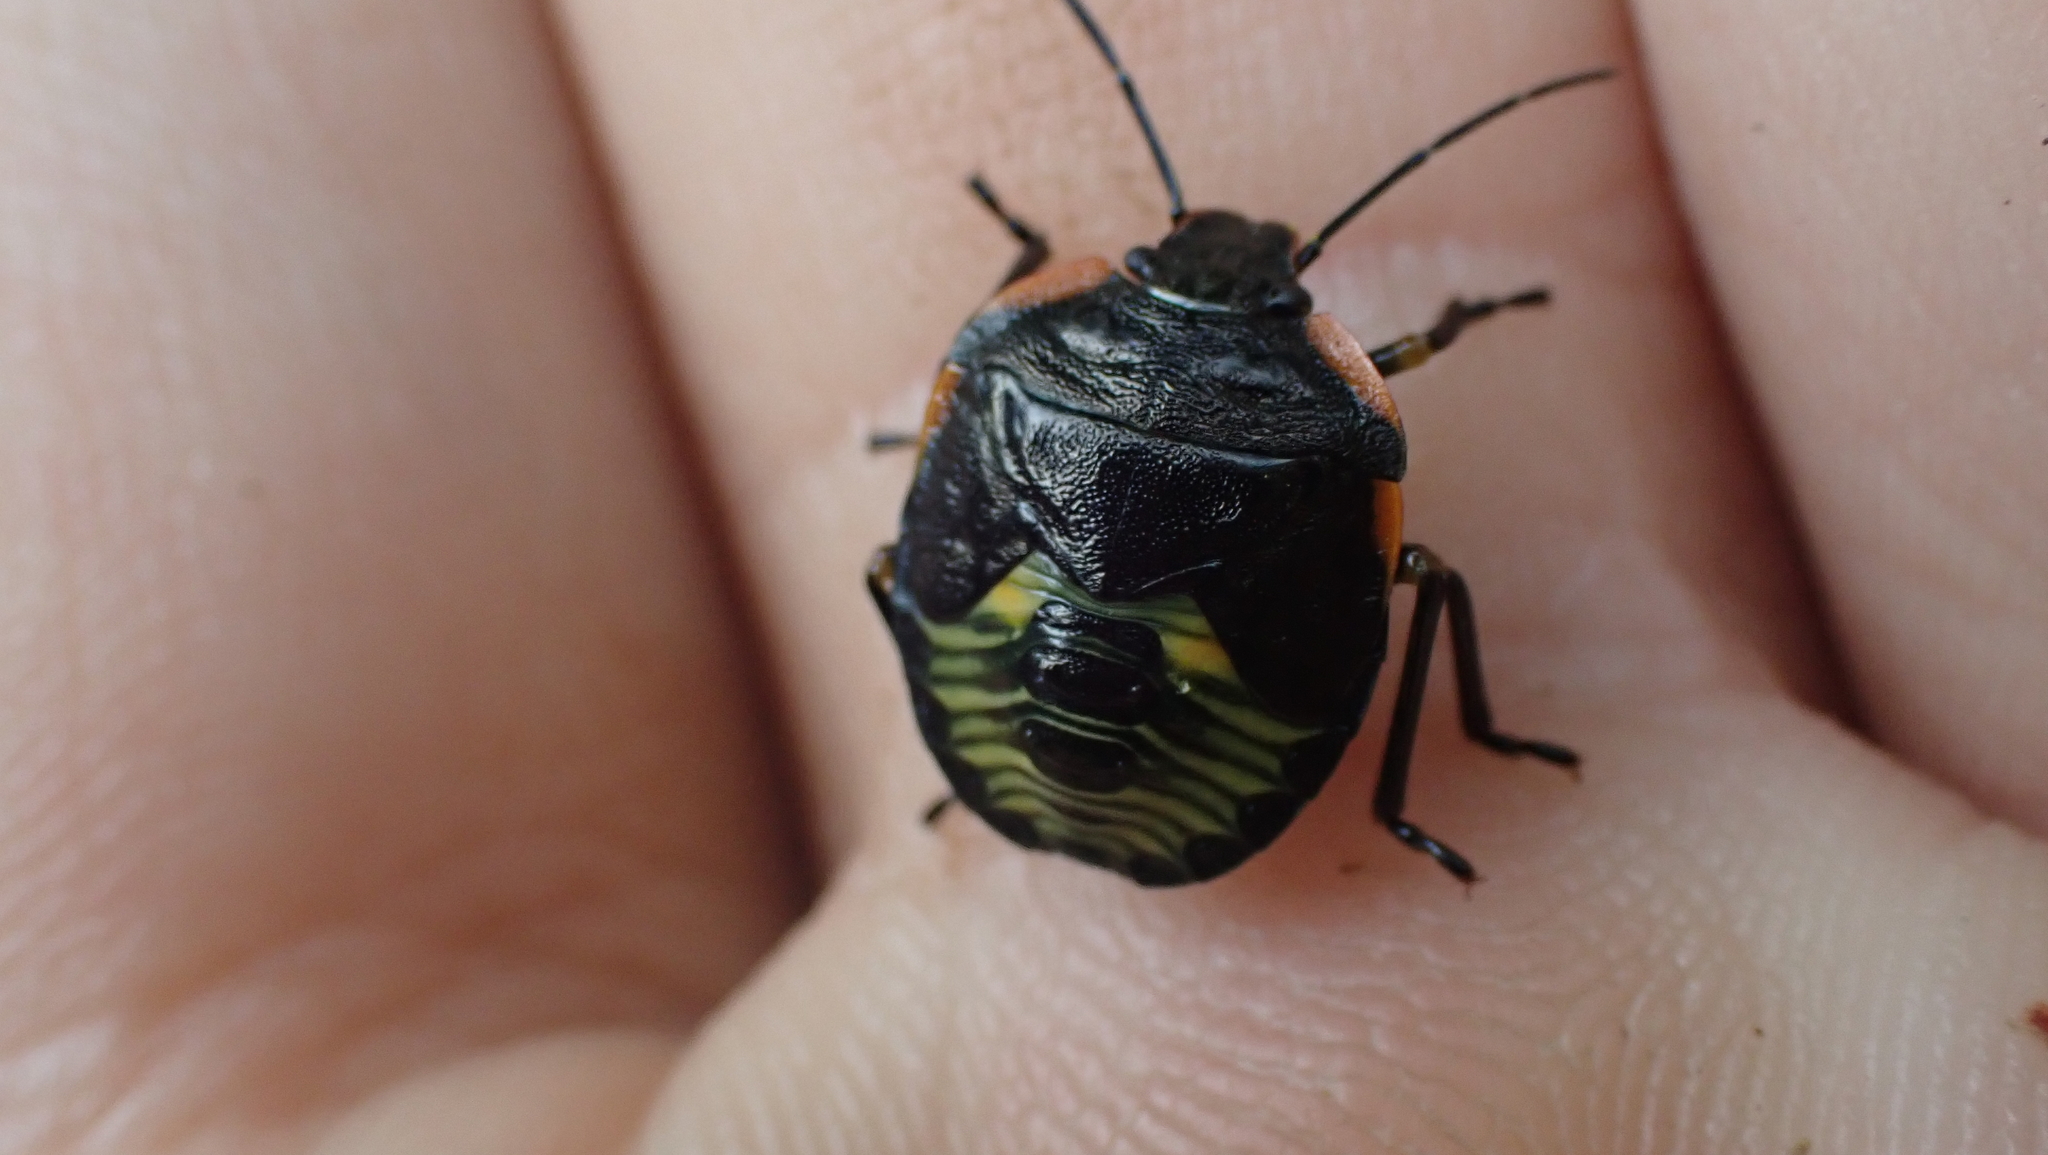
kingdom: Animalia
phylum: Arthropoda
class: Insecta
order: Hemiptera
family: Pentatomidae
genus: Chinavia
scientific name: Chinavia hilaris
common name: Green stink bug
